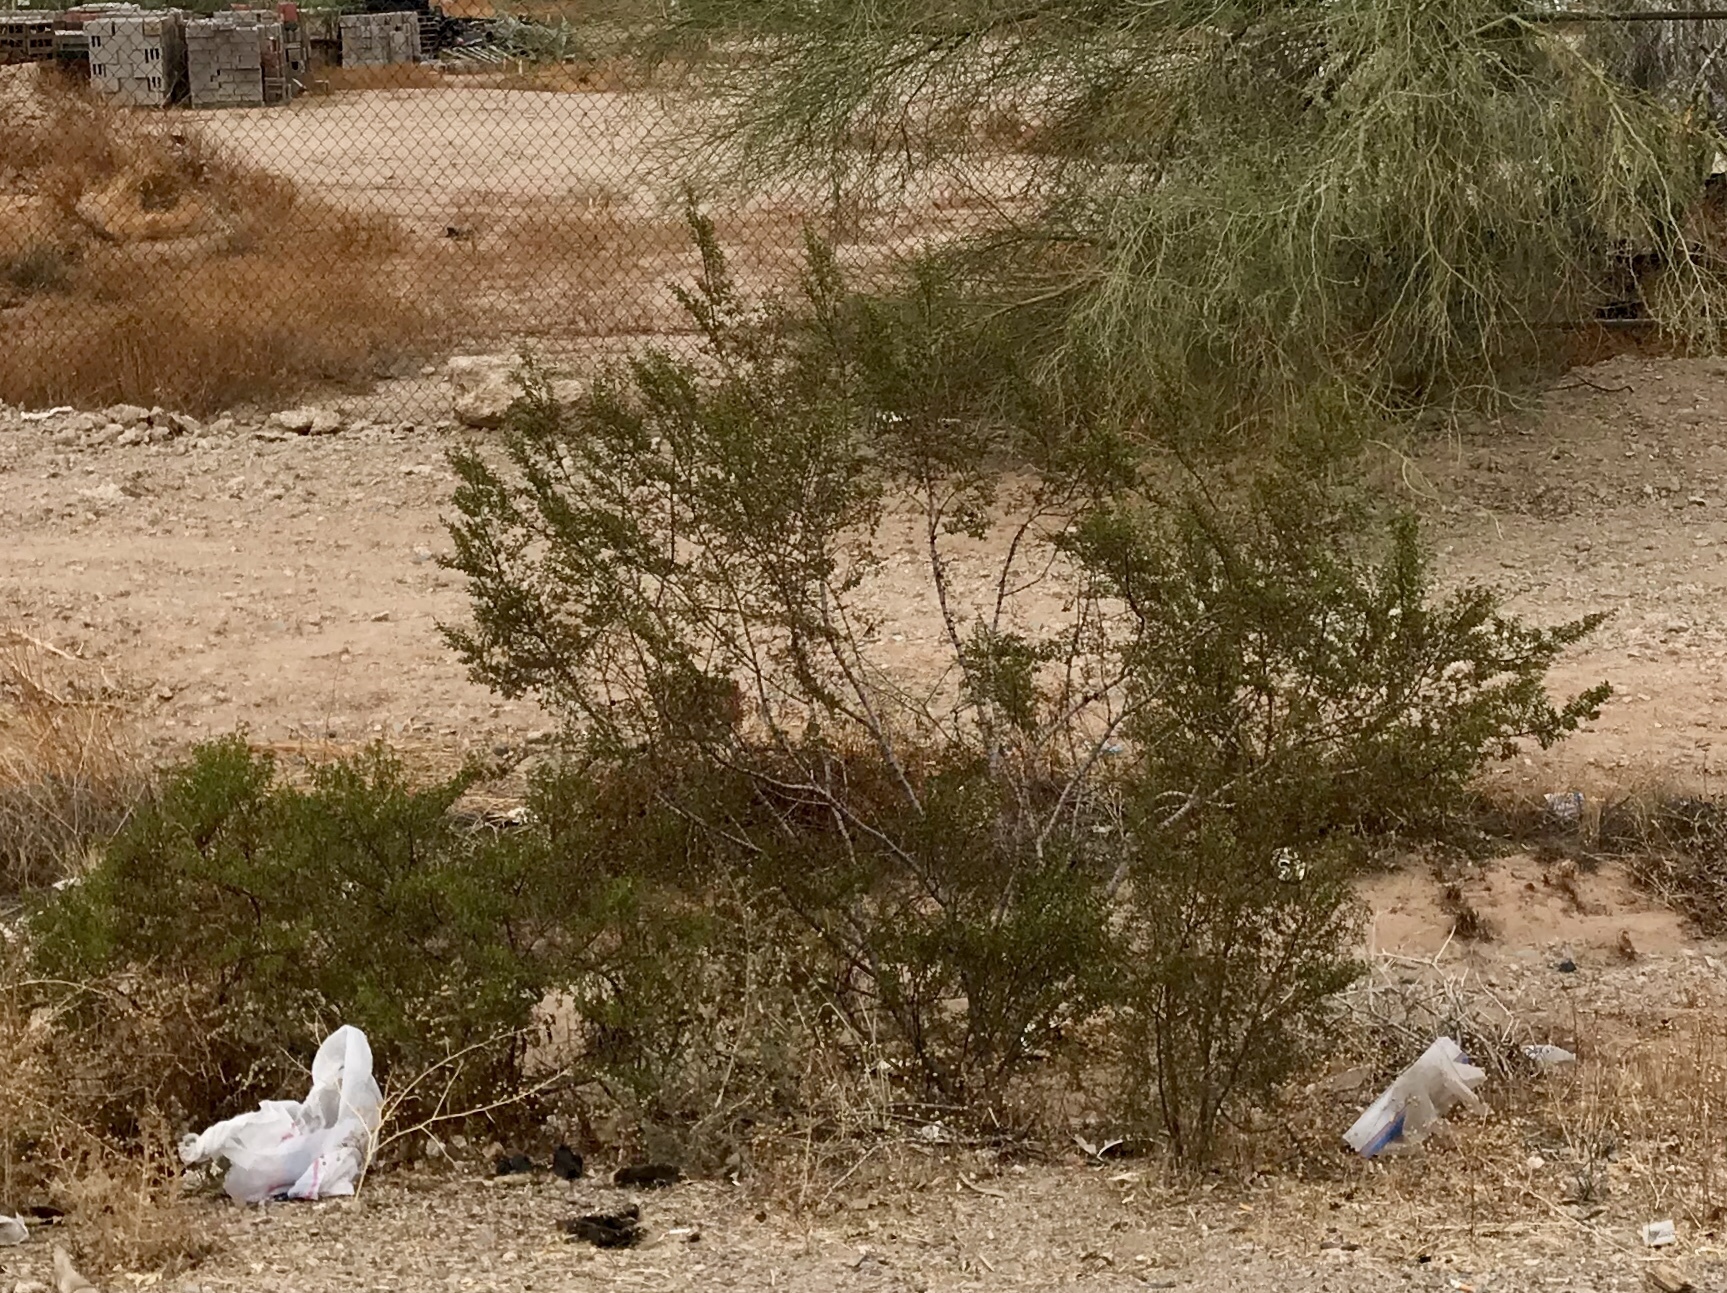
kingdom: Plantae
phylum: Tracheophyta
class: Magnoliopsida
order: Zygophyllales
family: Zygophyllaceae
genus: Larrea
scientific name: Larrea tridentata
